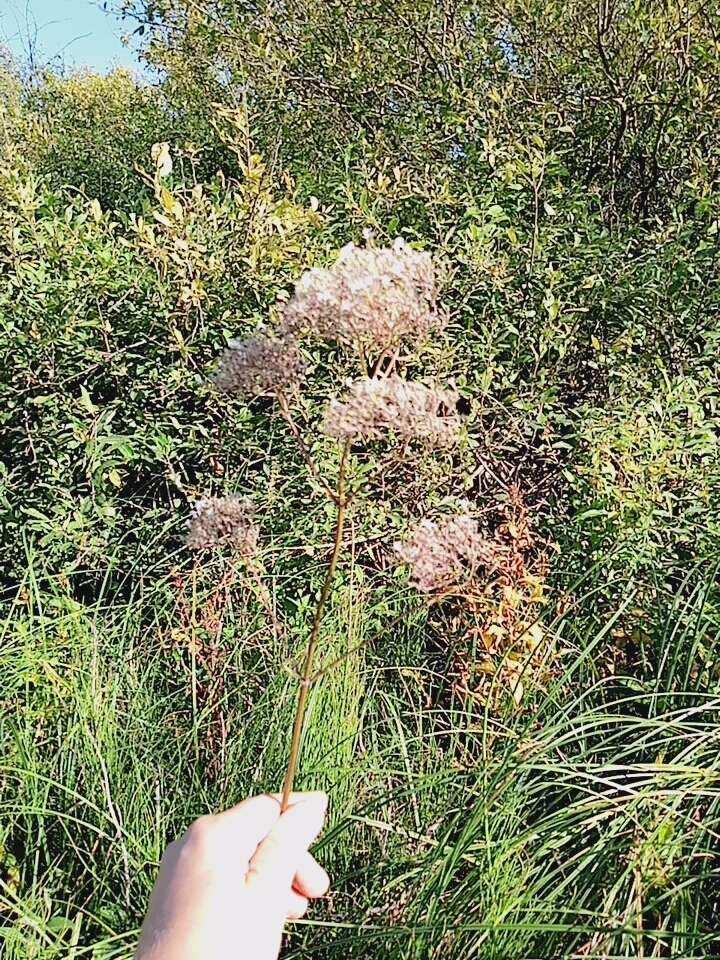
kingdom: Plantae
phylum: Tracheophyta
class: Magnoliopsida
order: Dipsacales
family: Caprifoliaceae
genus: Valeriana
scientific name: Valeriana officinalis
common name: Common valerian
